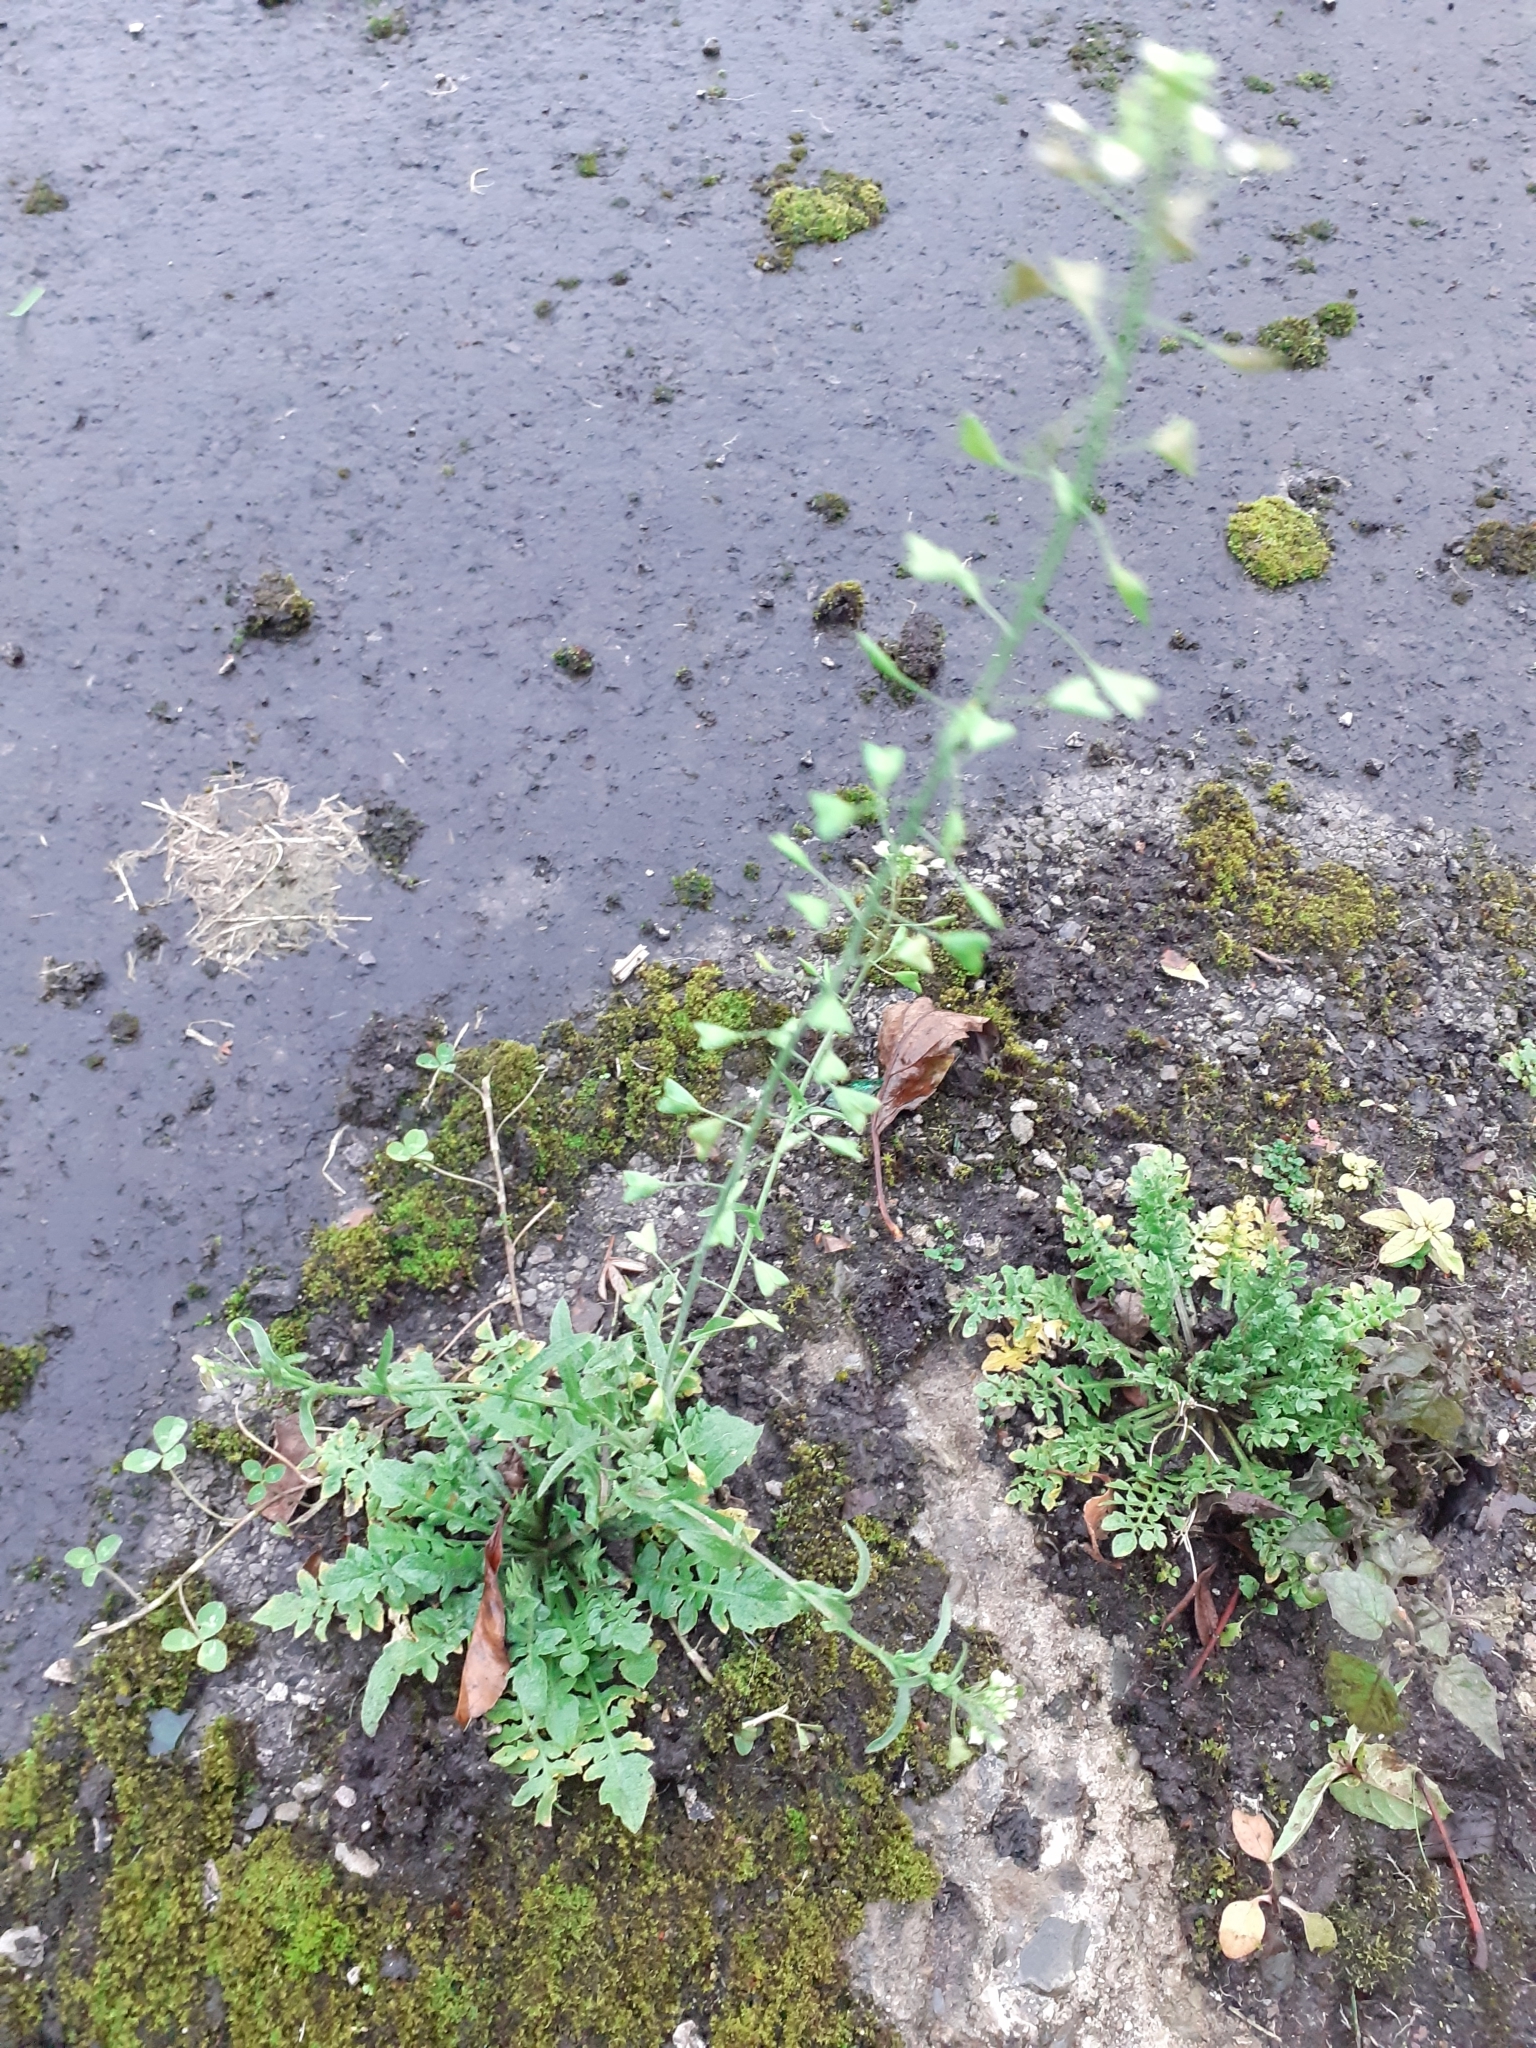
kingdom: Plantae
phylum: Tracheophyta
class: Magnoliopsida
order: Brassicales
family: Brassicaceae
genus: Capsella
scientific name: Capsella bursa-pastoris
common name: Shepherd's purse
